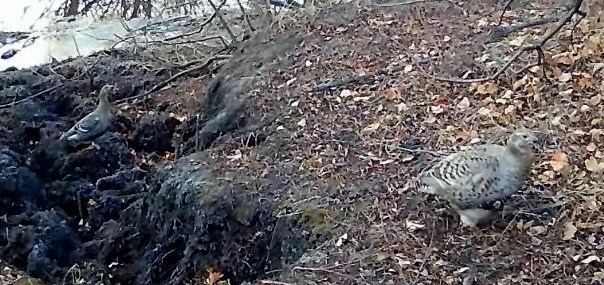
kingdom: Animalia
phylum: Chordata
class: Aves
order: Galliformes
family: Phasianidae
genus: Lyrurus
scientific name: Lyrurus tetrix
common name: Black grouse
